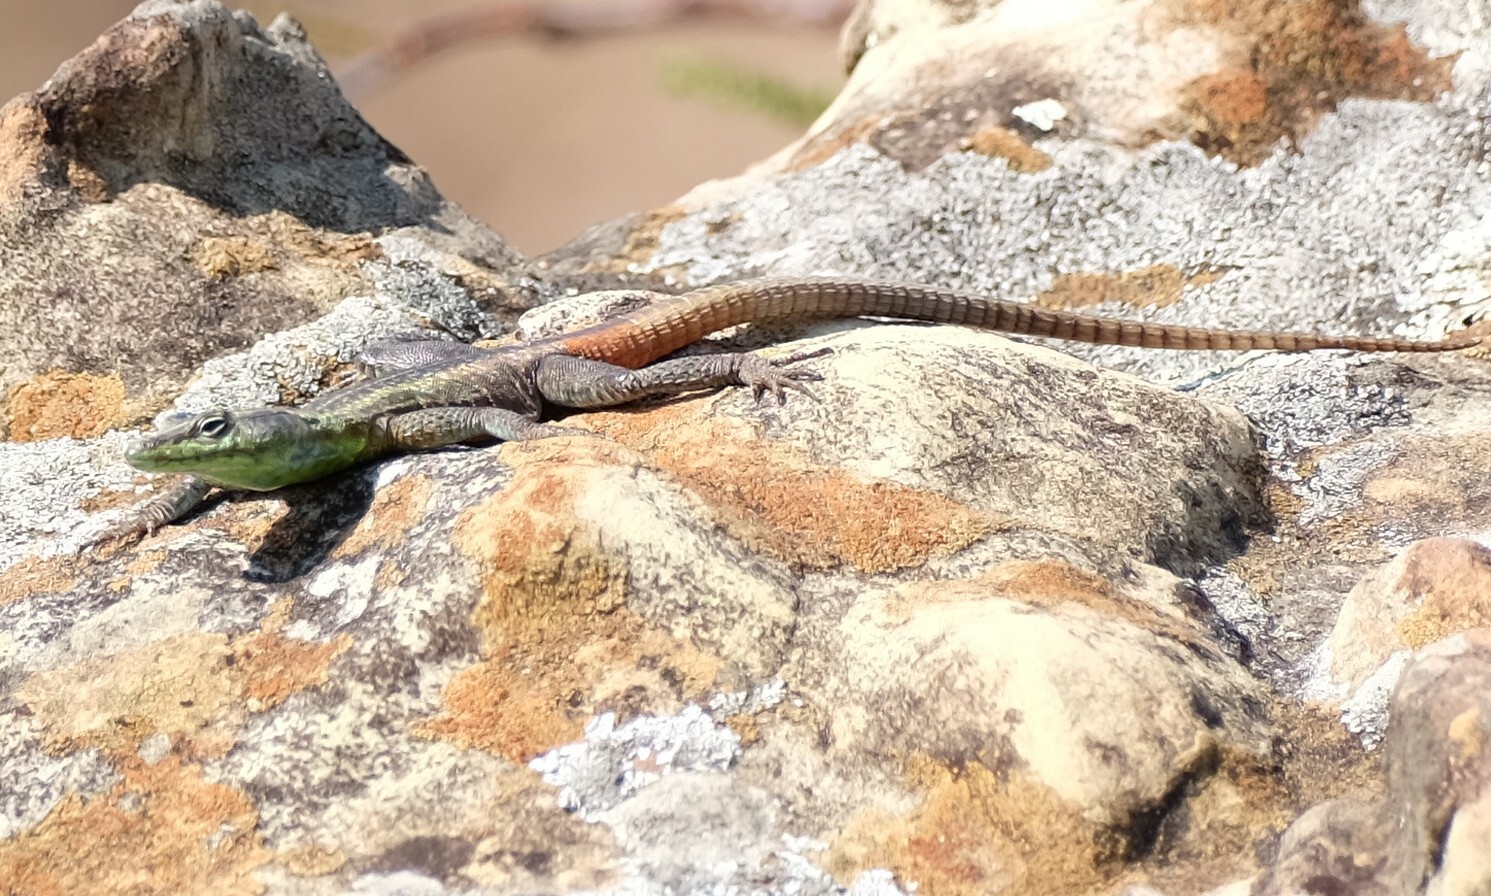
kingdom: Animalia
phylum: Chordata
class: Squamata
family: Cordylidae
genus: Platysaurus
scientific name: Platysaurus intermedius
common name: Common flat lizard
